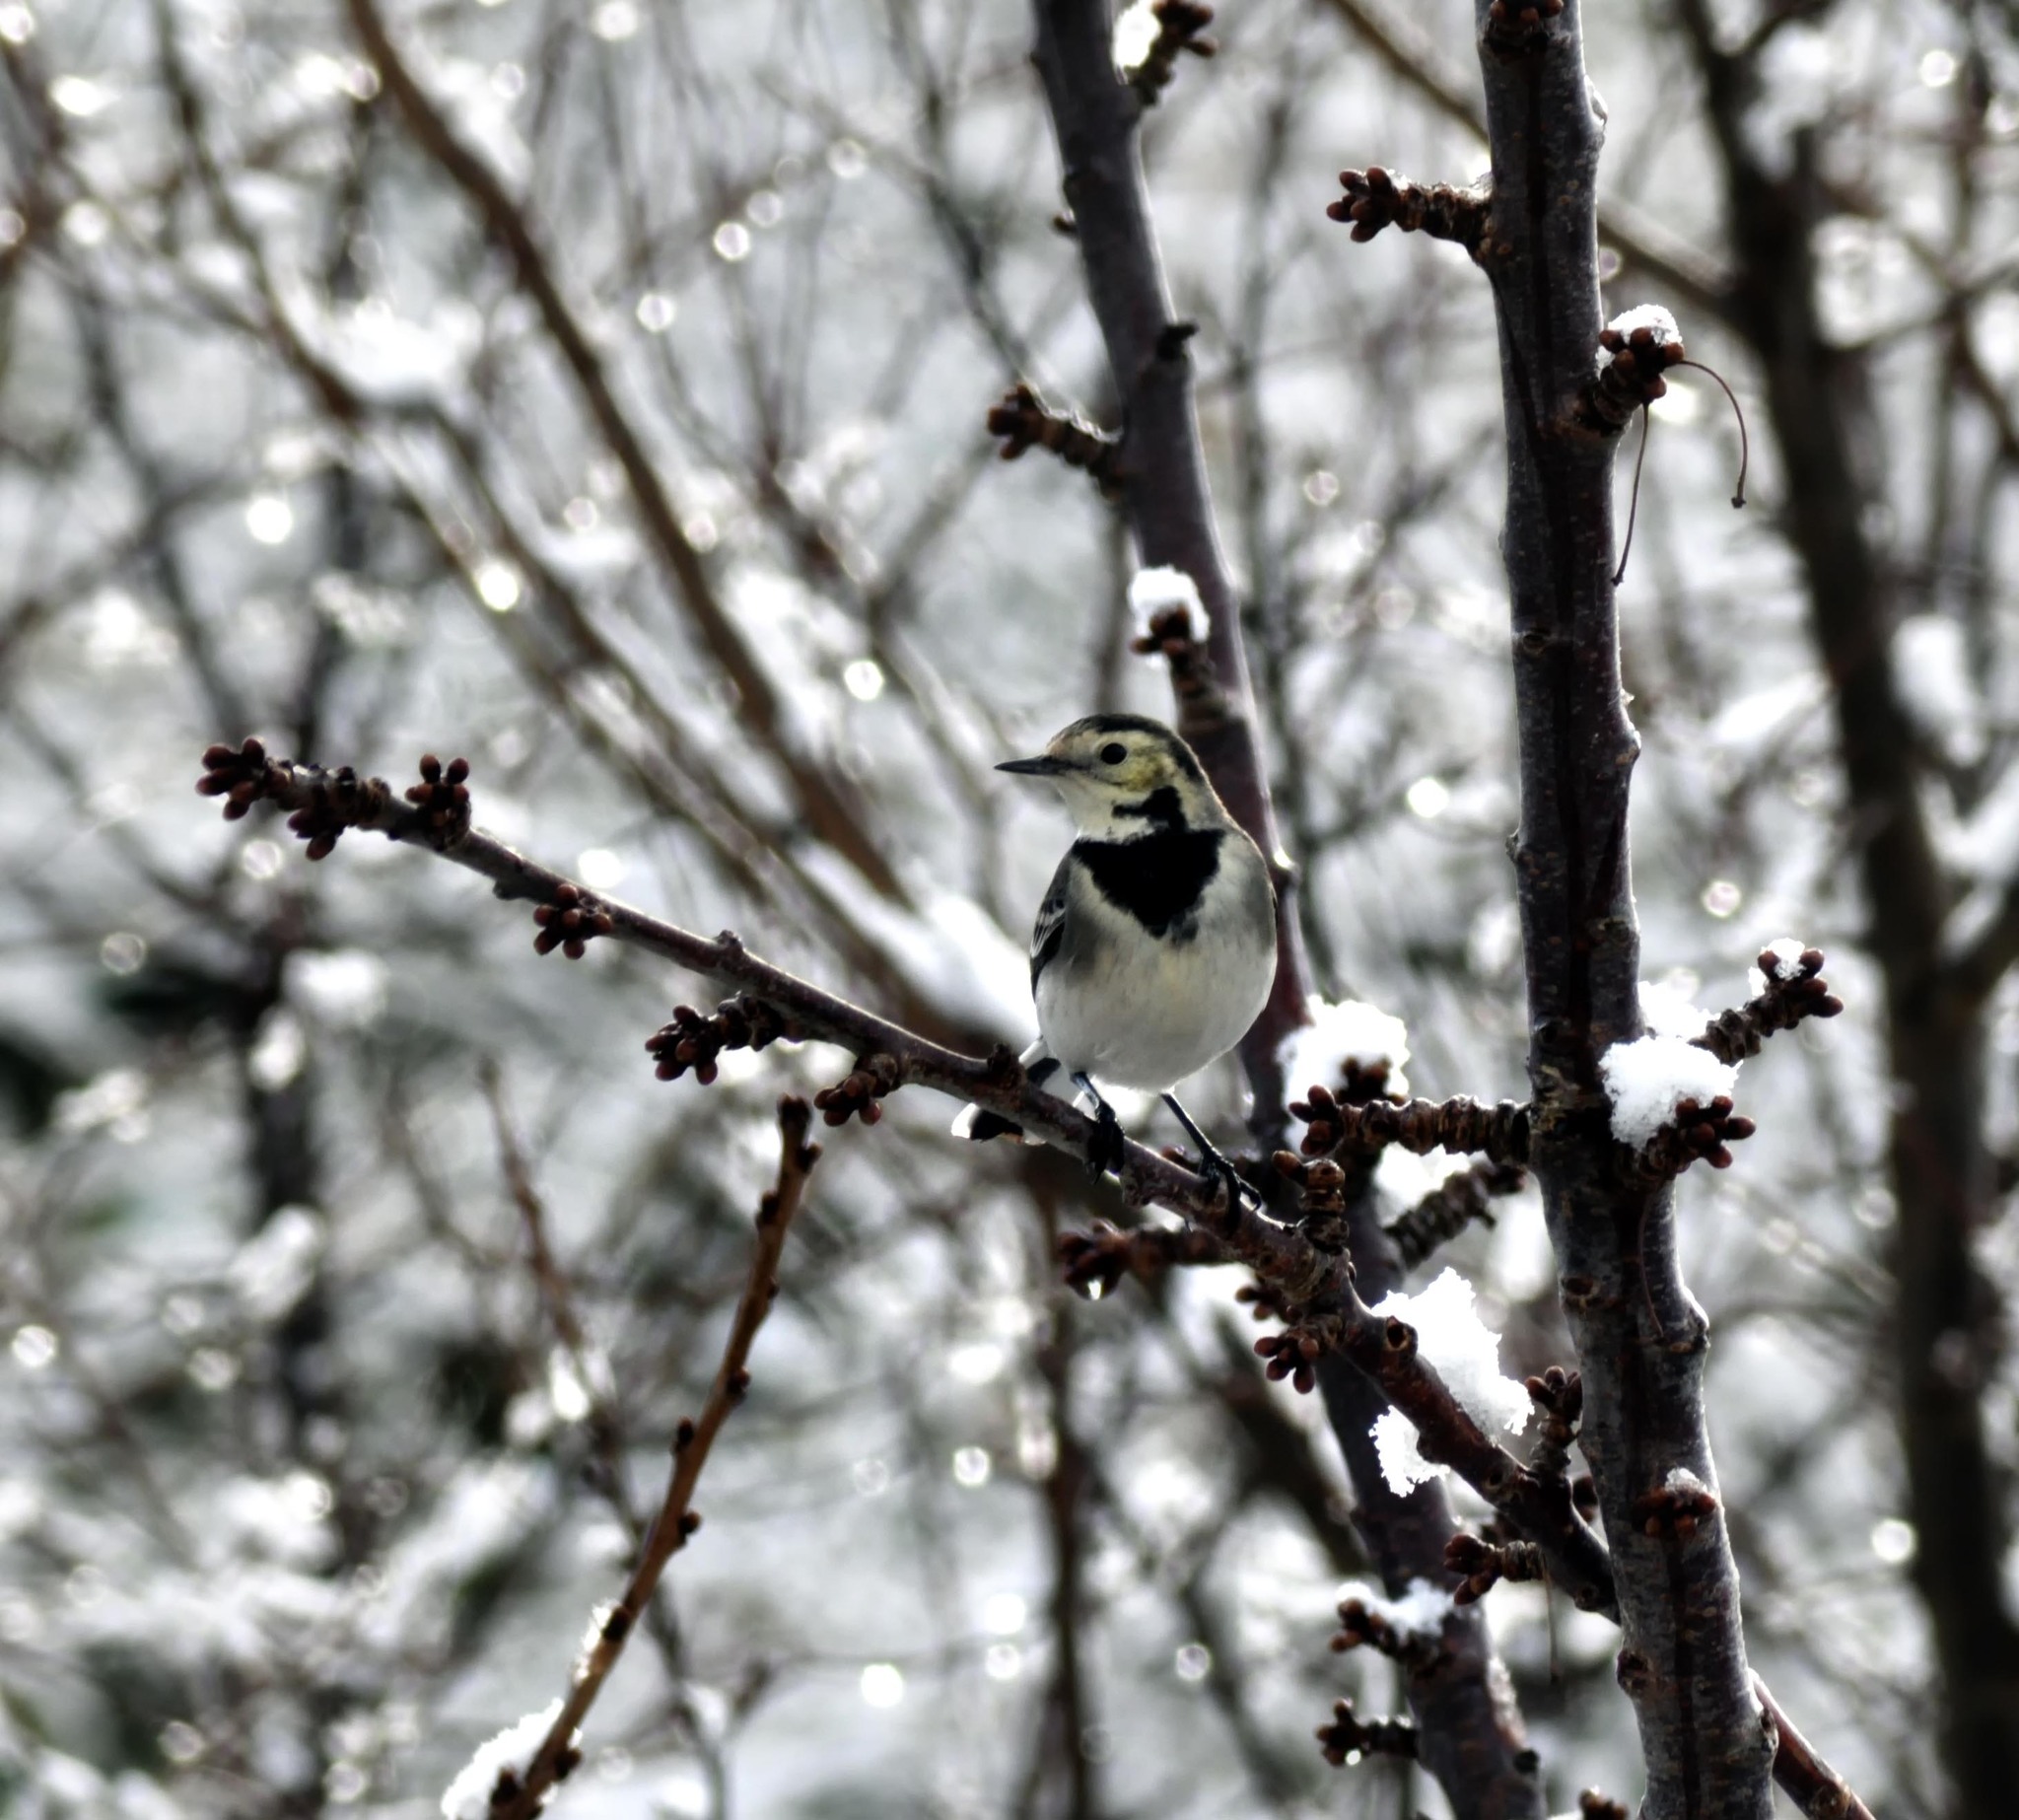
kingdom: Animalia
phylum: Chordata
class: Aves
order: Passeriformes
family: Motacillidae
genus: Motacilla
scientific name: Motacilla alba
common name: White wagtail
